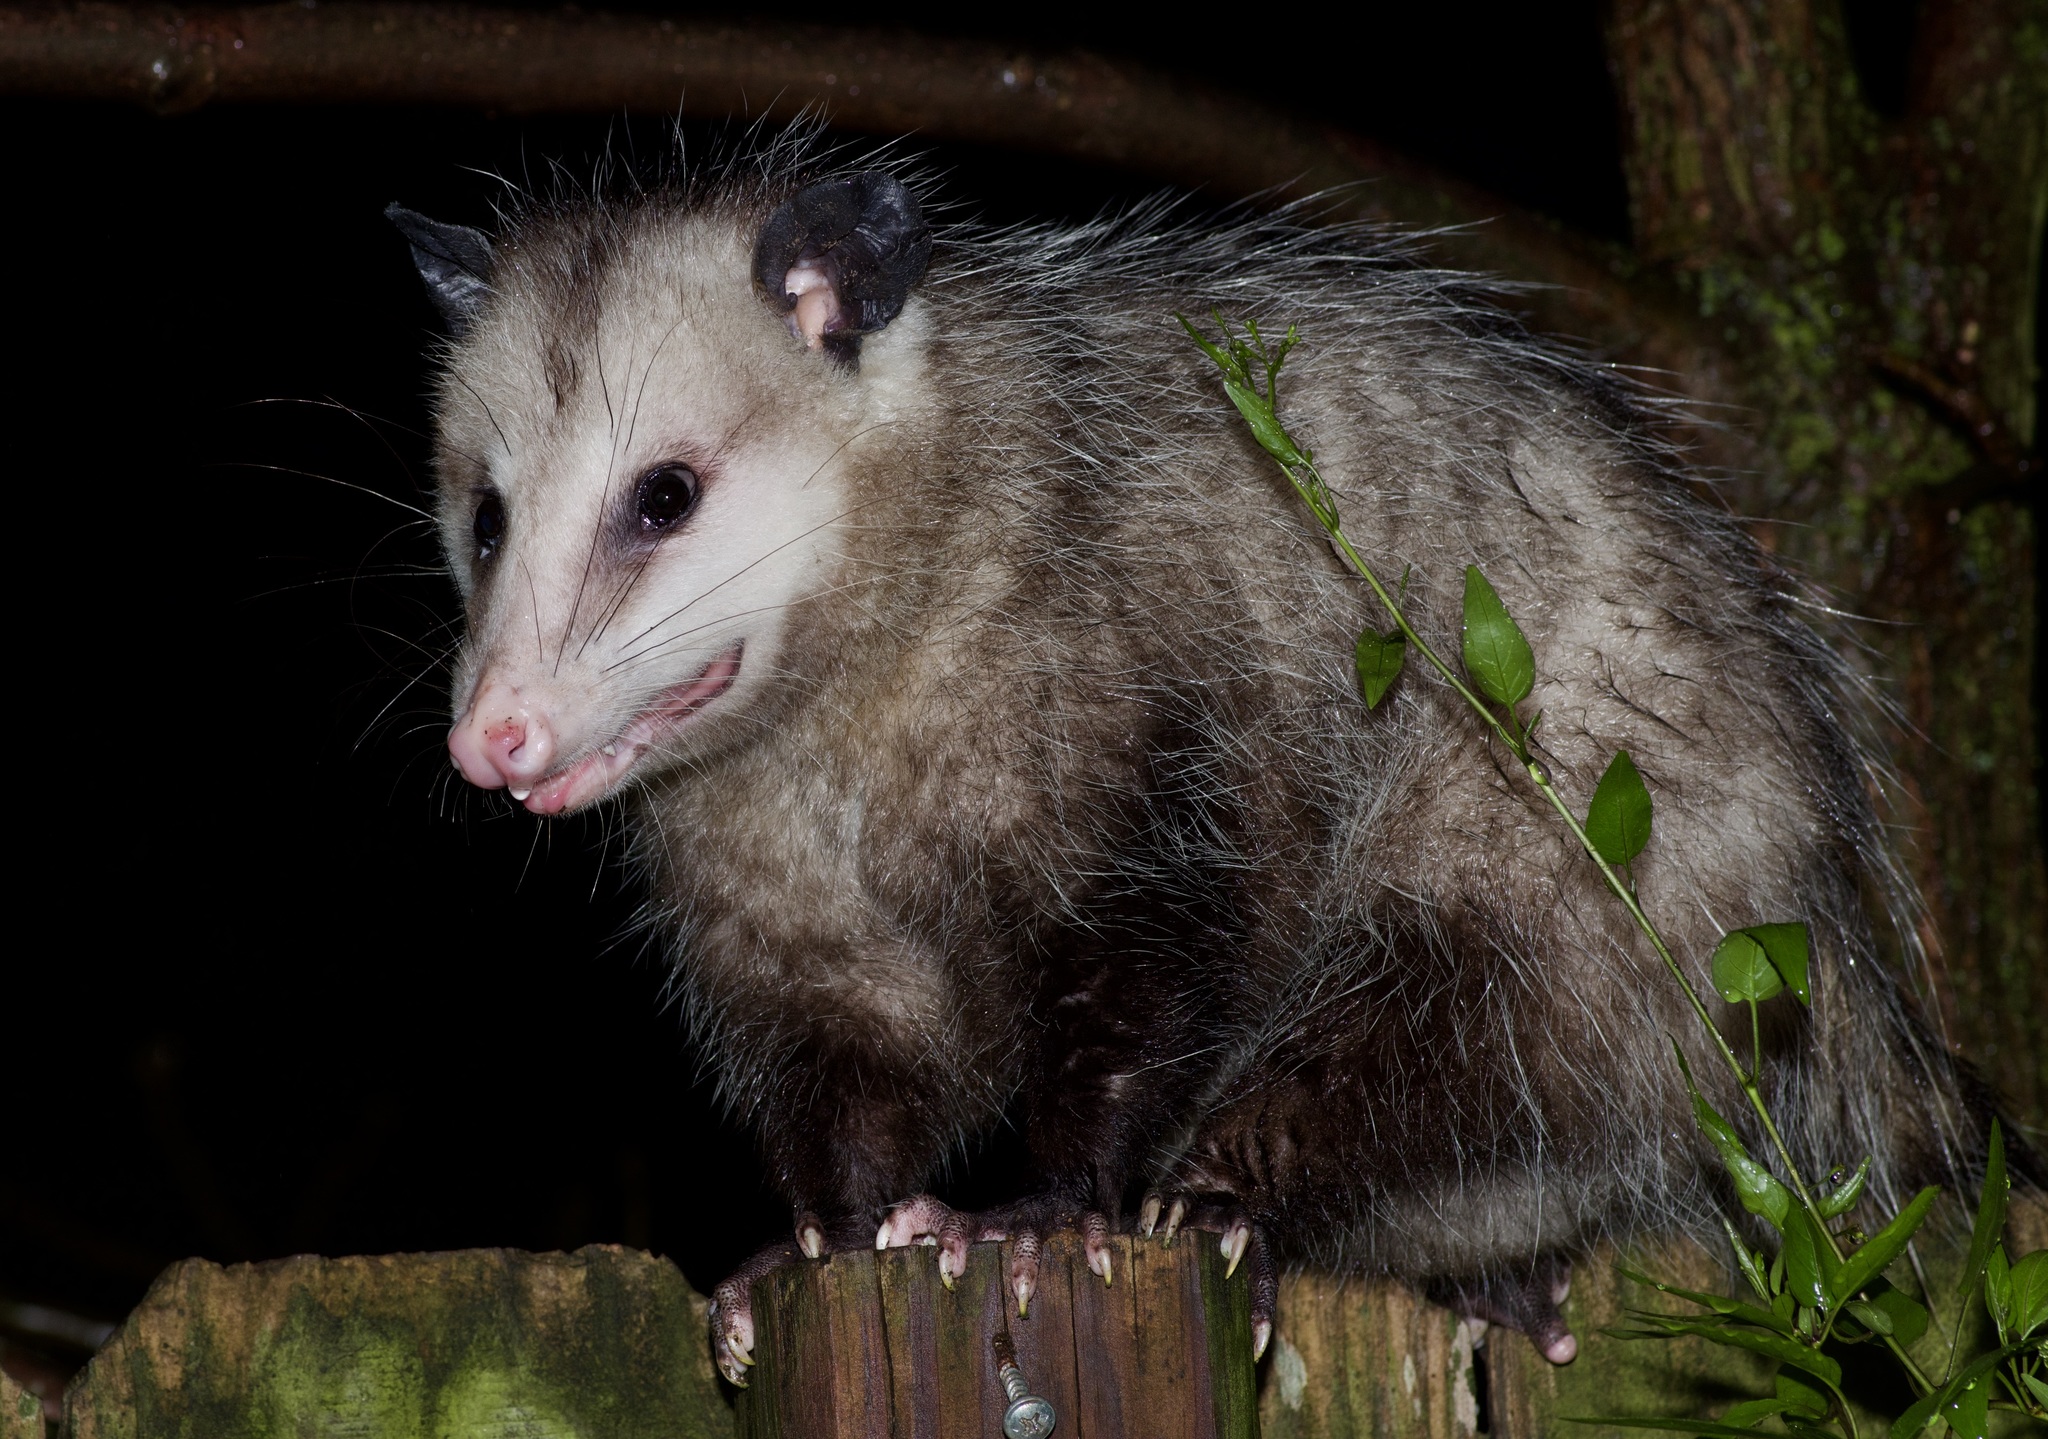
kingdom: Animalia
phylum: Chordata
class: Mammalia
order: Didelphimorphia
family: Didelphidae
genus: Didelphis
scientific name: Didelphis virginiana
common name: Virginia opossum
